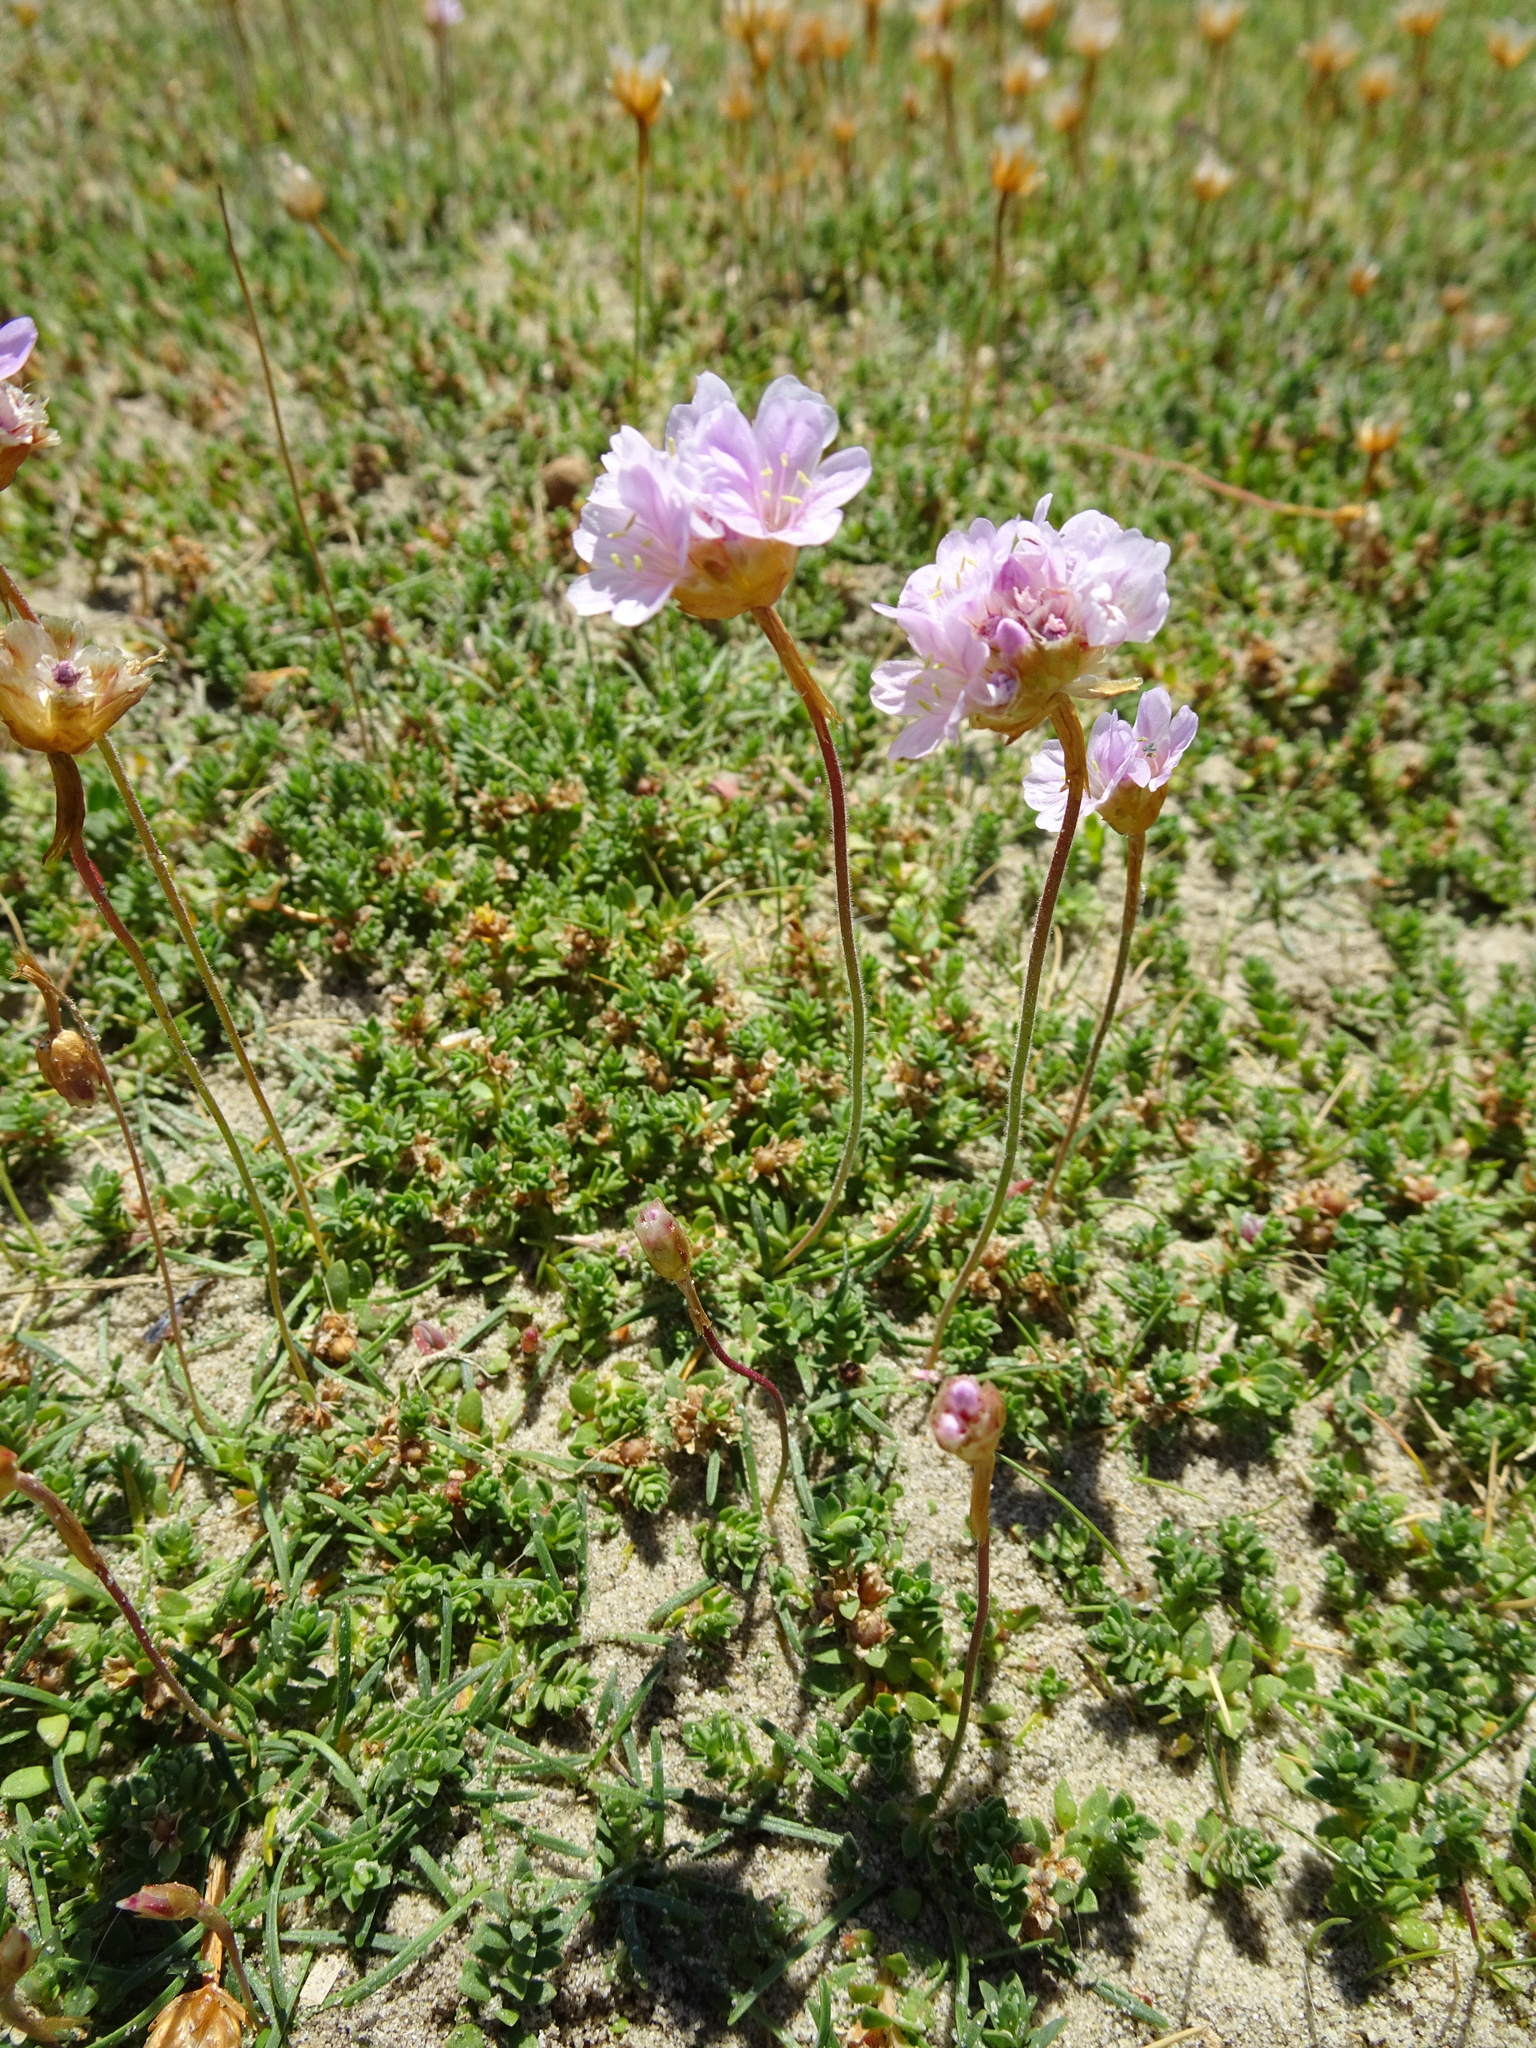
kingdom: Plantae
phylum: Tracheophyta
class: Magnoliopsida
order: Caryophyllales
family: Plumbaginaceae
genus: Armeria
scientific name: Armeria maritima
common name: Thrift
